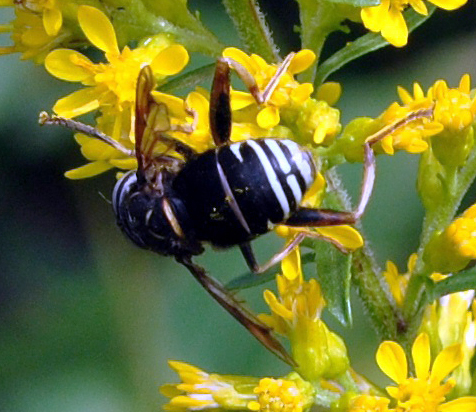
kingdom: Animalia
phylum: Arthropoda
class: Insecta
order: Diptera
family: Syrphidae
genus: Spilomyia
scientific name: Spilomyia fusca
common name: Bald-faced hornet fly
